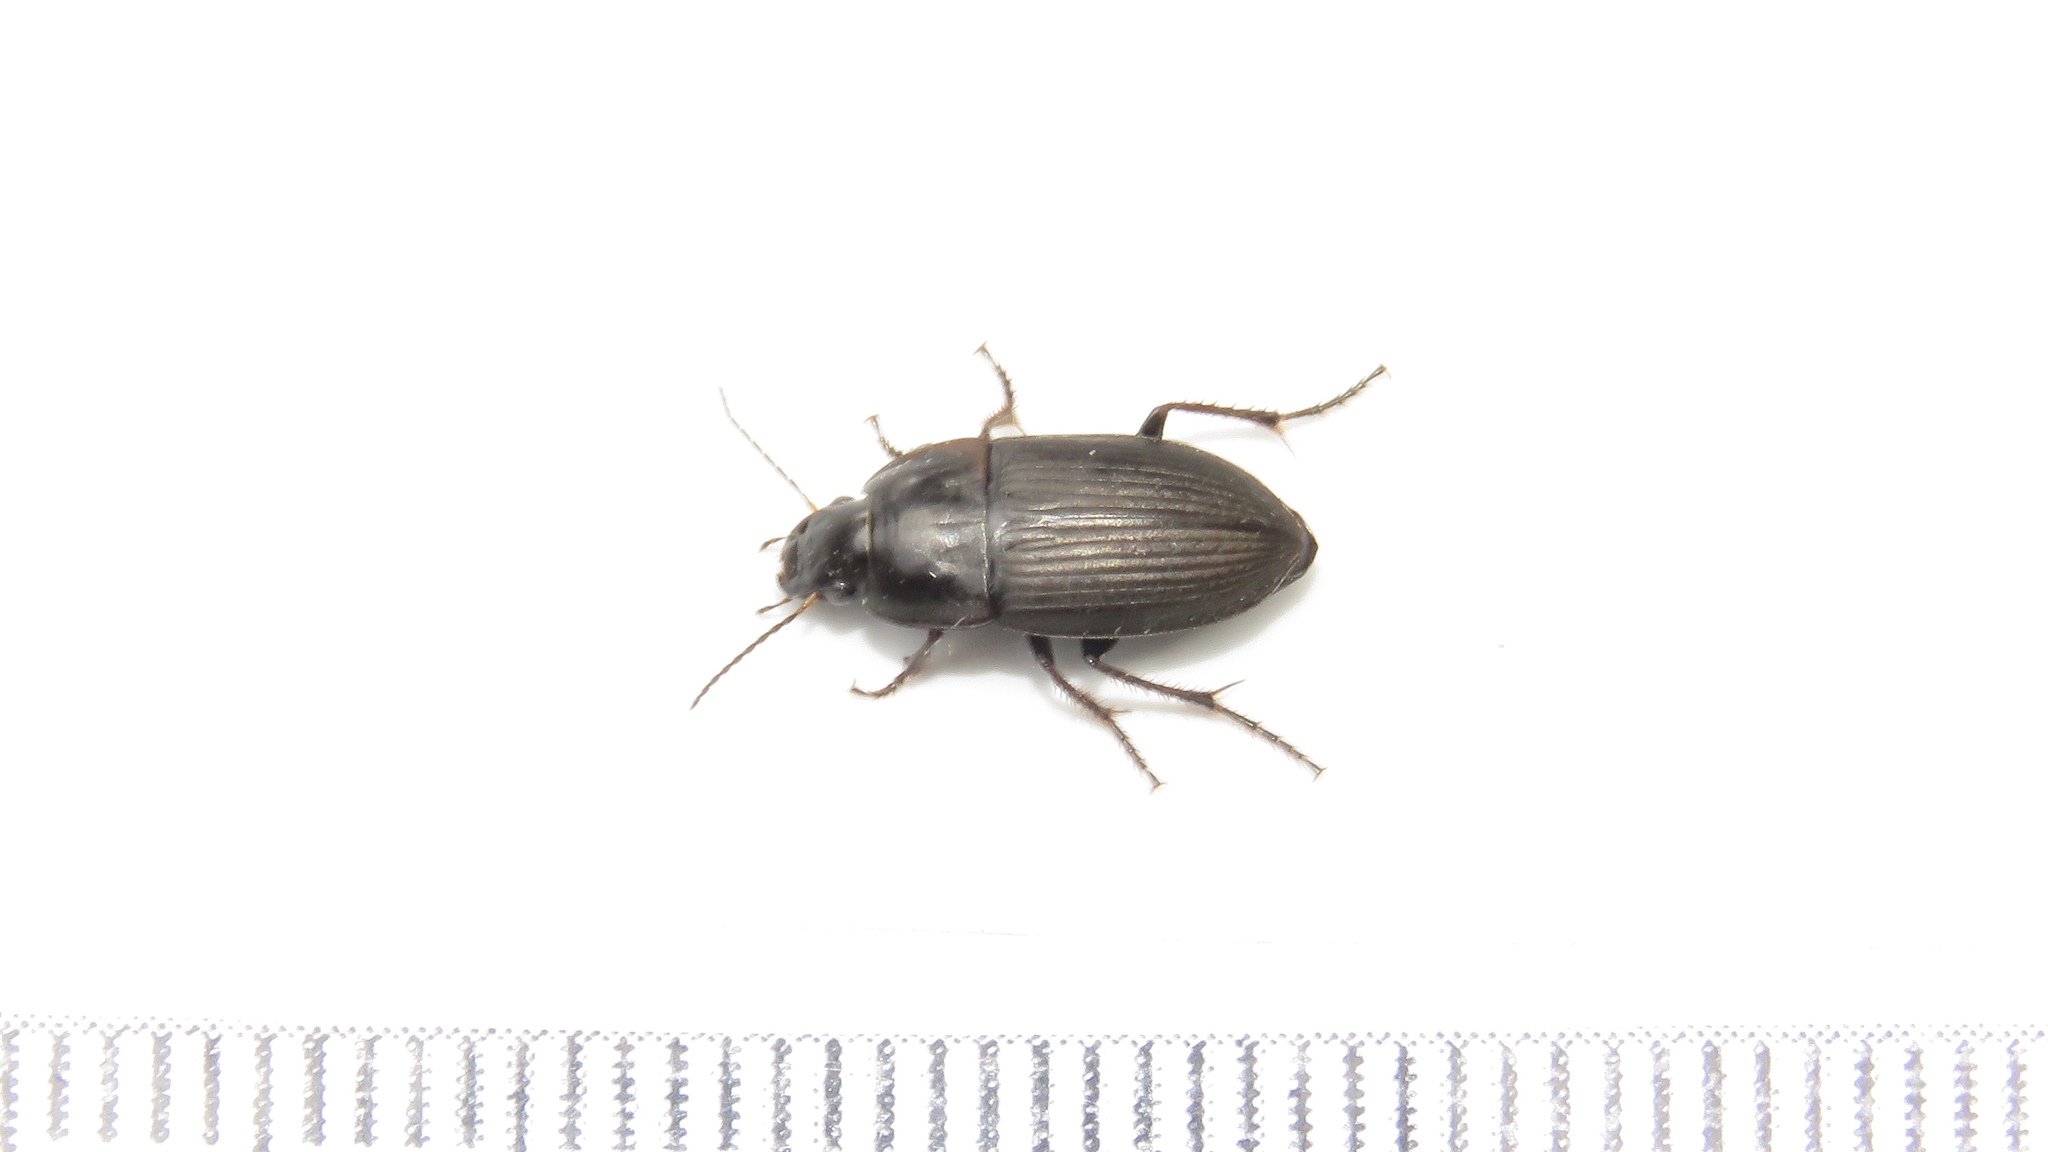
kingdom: Animalia
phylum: Arthropoda
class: Insecta
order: Coleoptera
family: Carabidae
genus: Anisodactylus
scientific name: Anisodactylus rusticus
